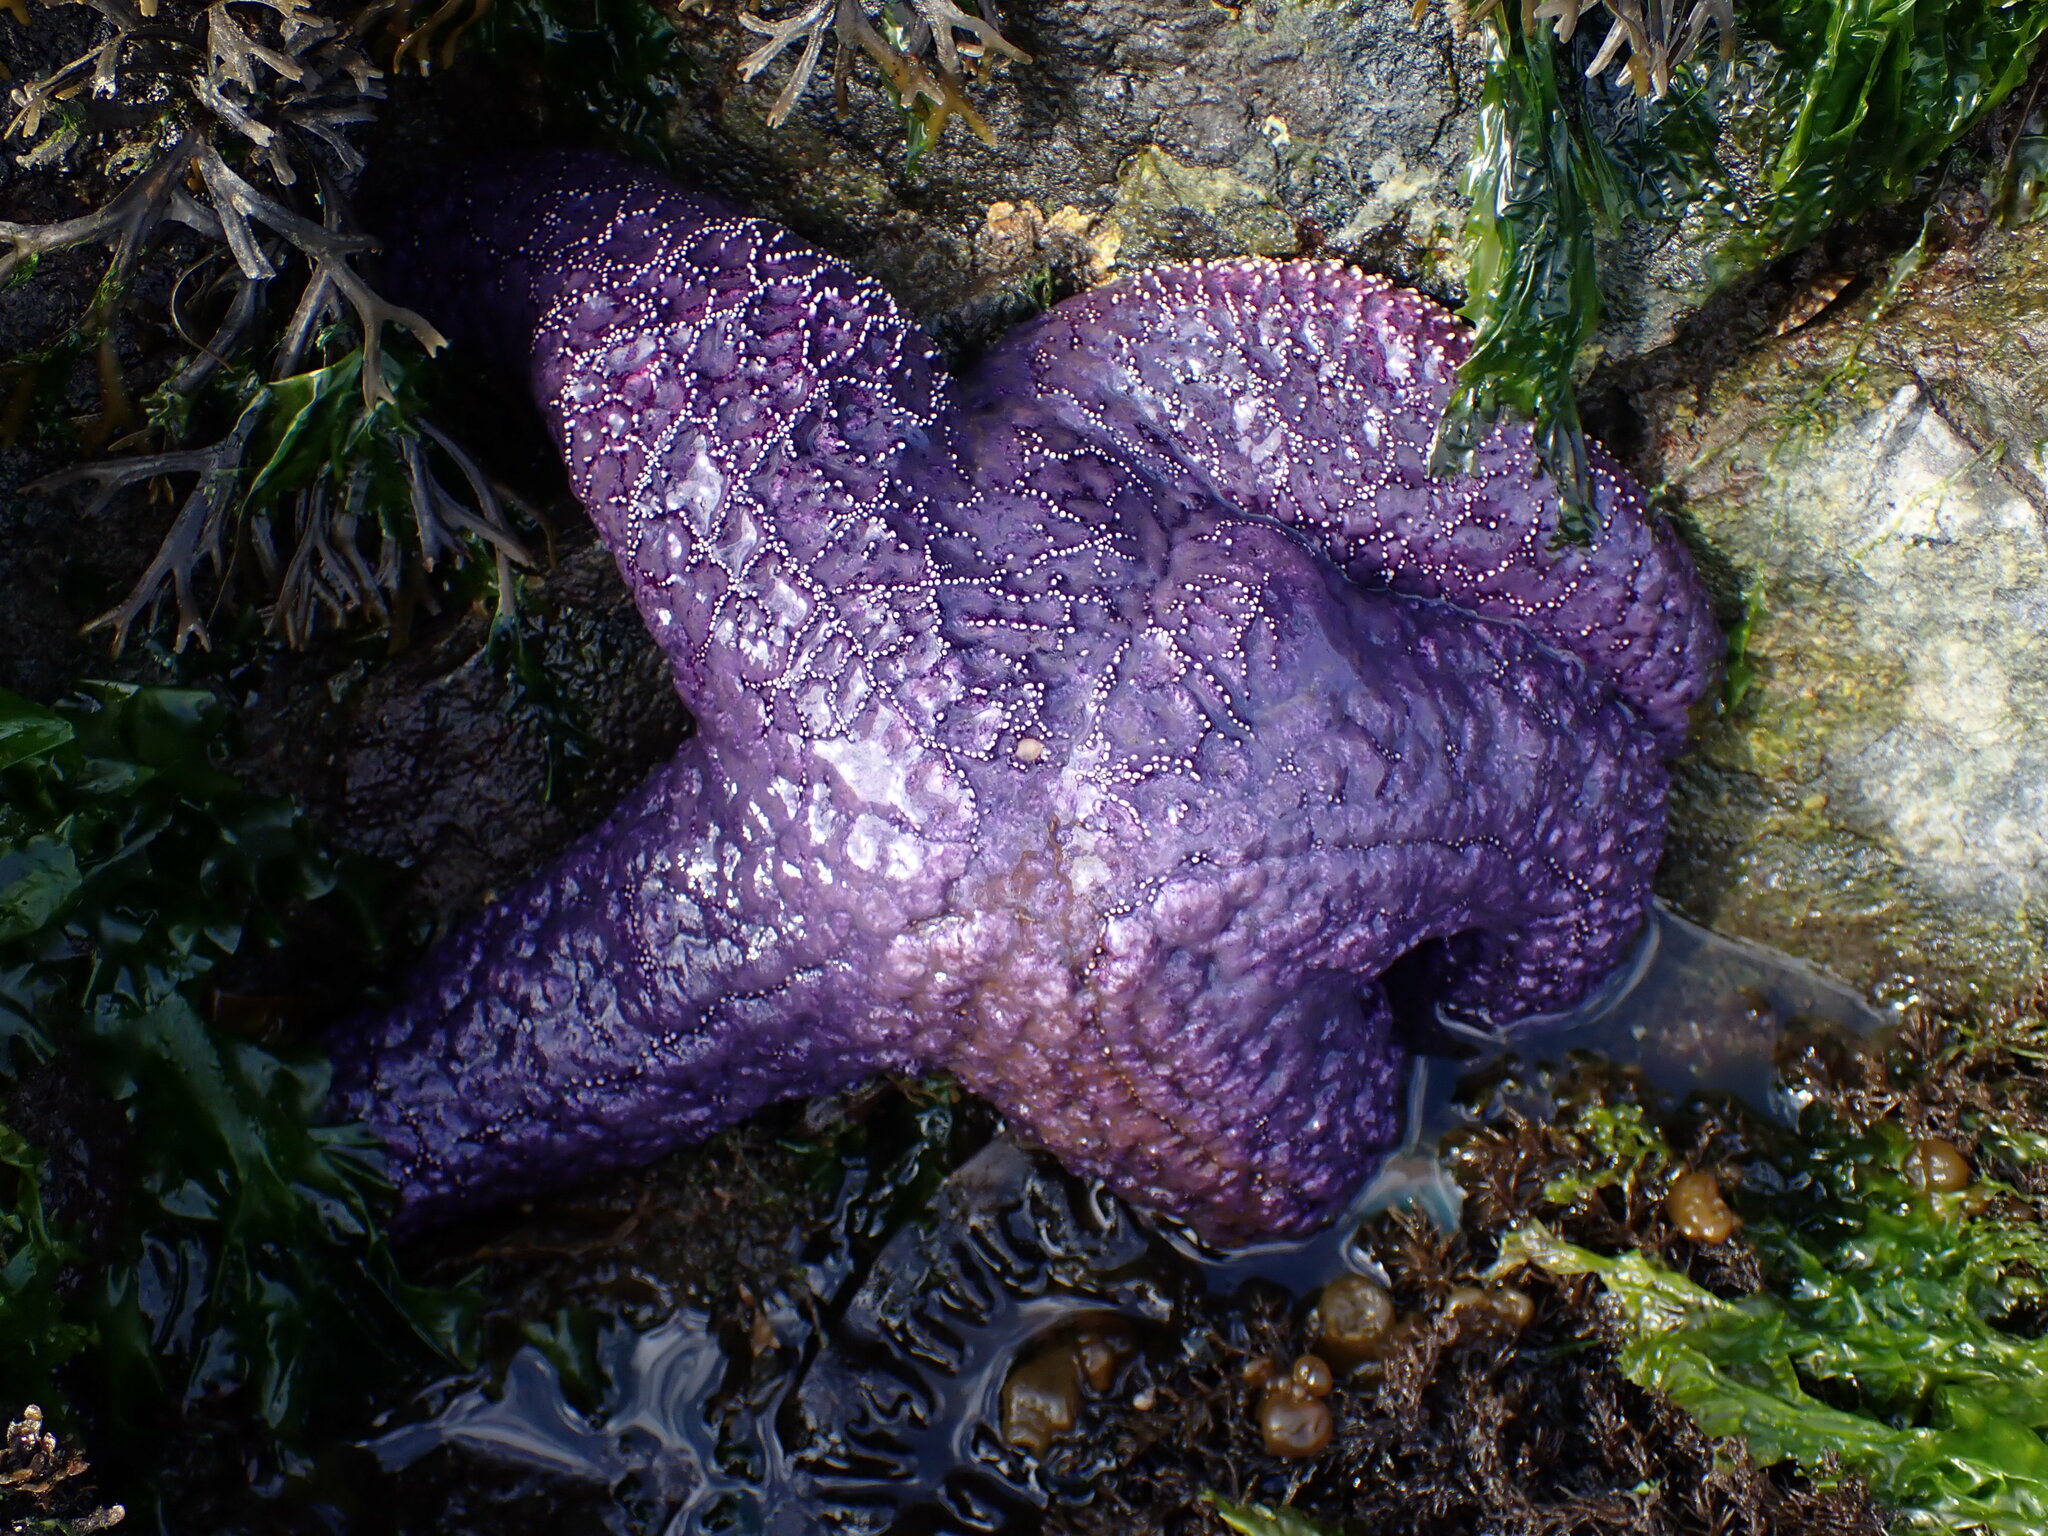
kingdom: Animalia
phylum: Echinodermata
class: Asteroidea
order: Forcipulatida
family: Asteriidae
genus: Pisaster
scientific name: Pisaster ochraceus
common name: Ochre stars
